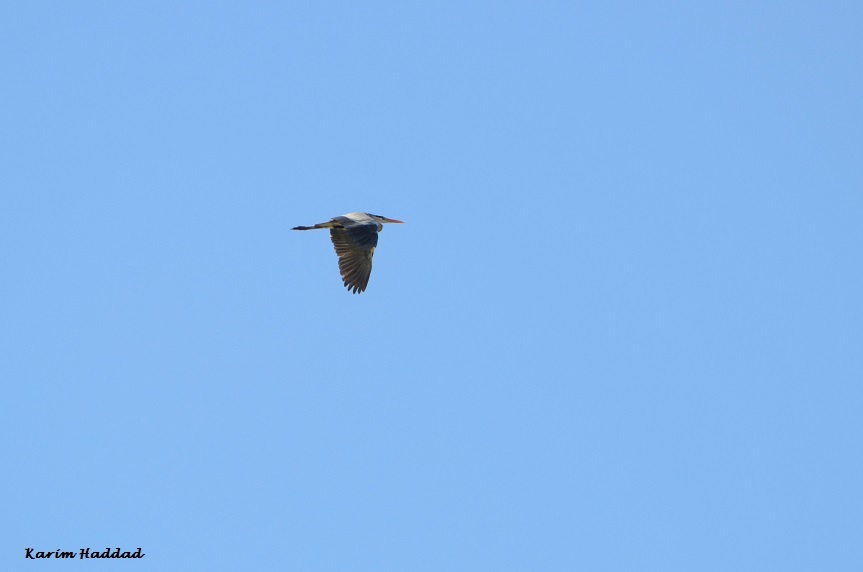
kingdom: Animalia
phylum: Chordata
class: Aves
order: Pelecaniformes
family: Ardeidae
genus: Ardea
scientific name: Ardea cinerea
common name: Grey heron
